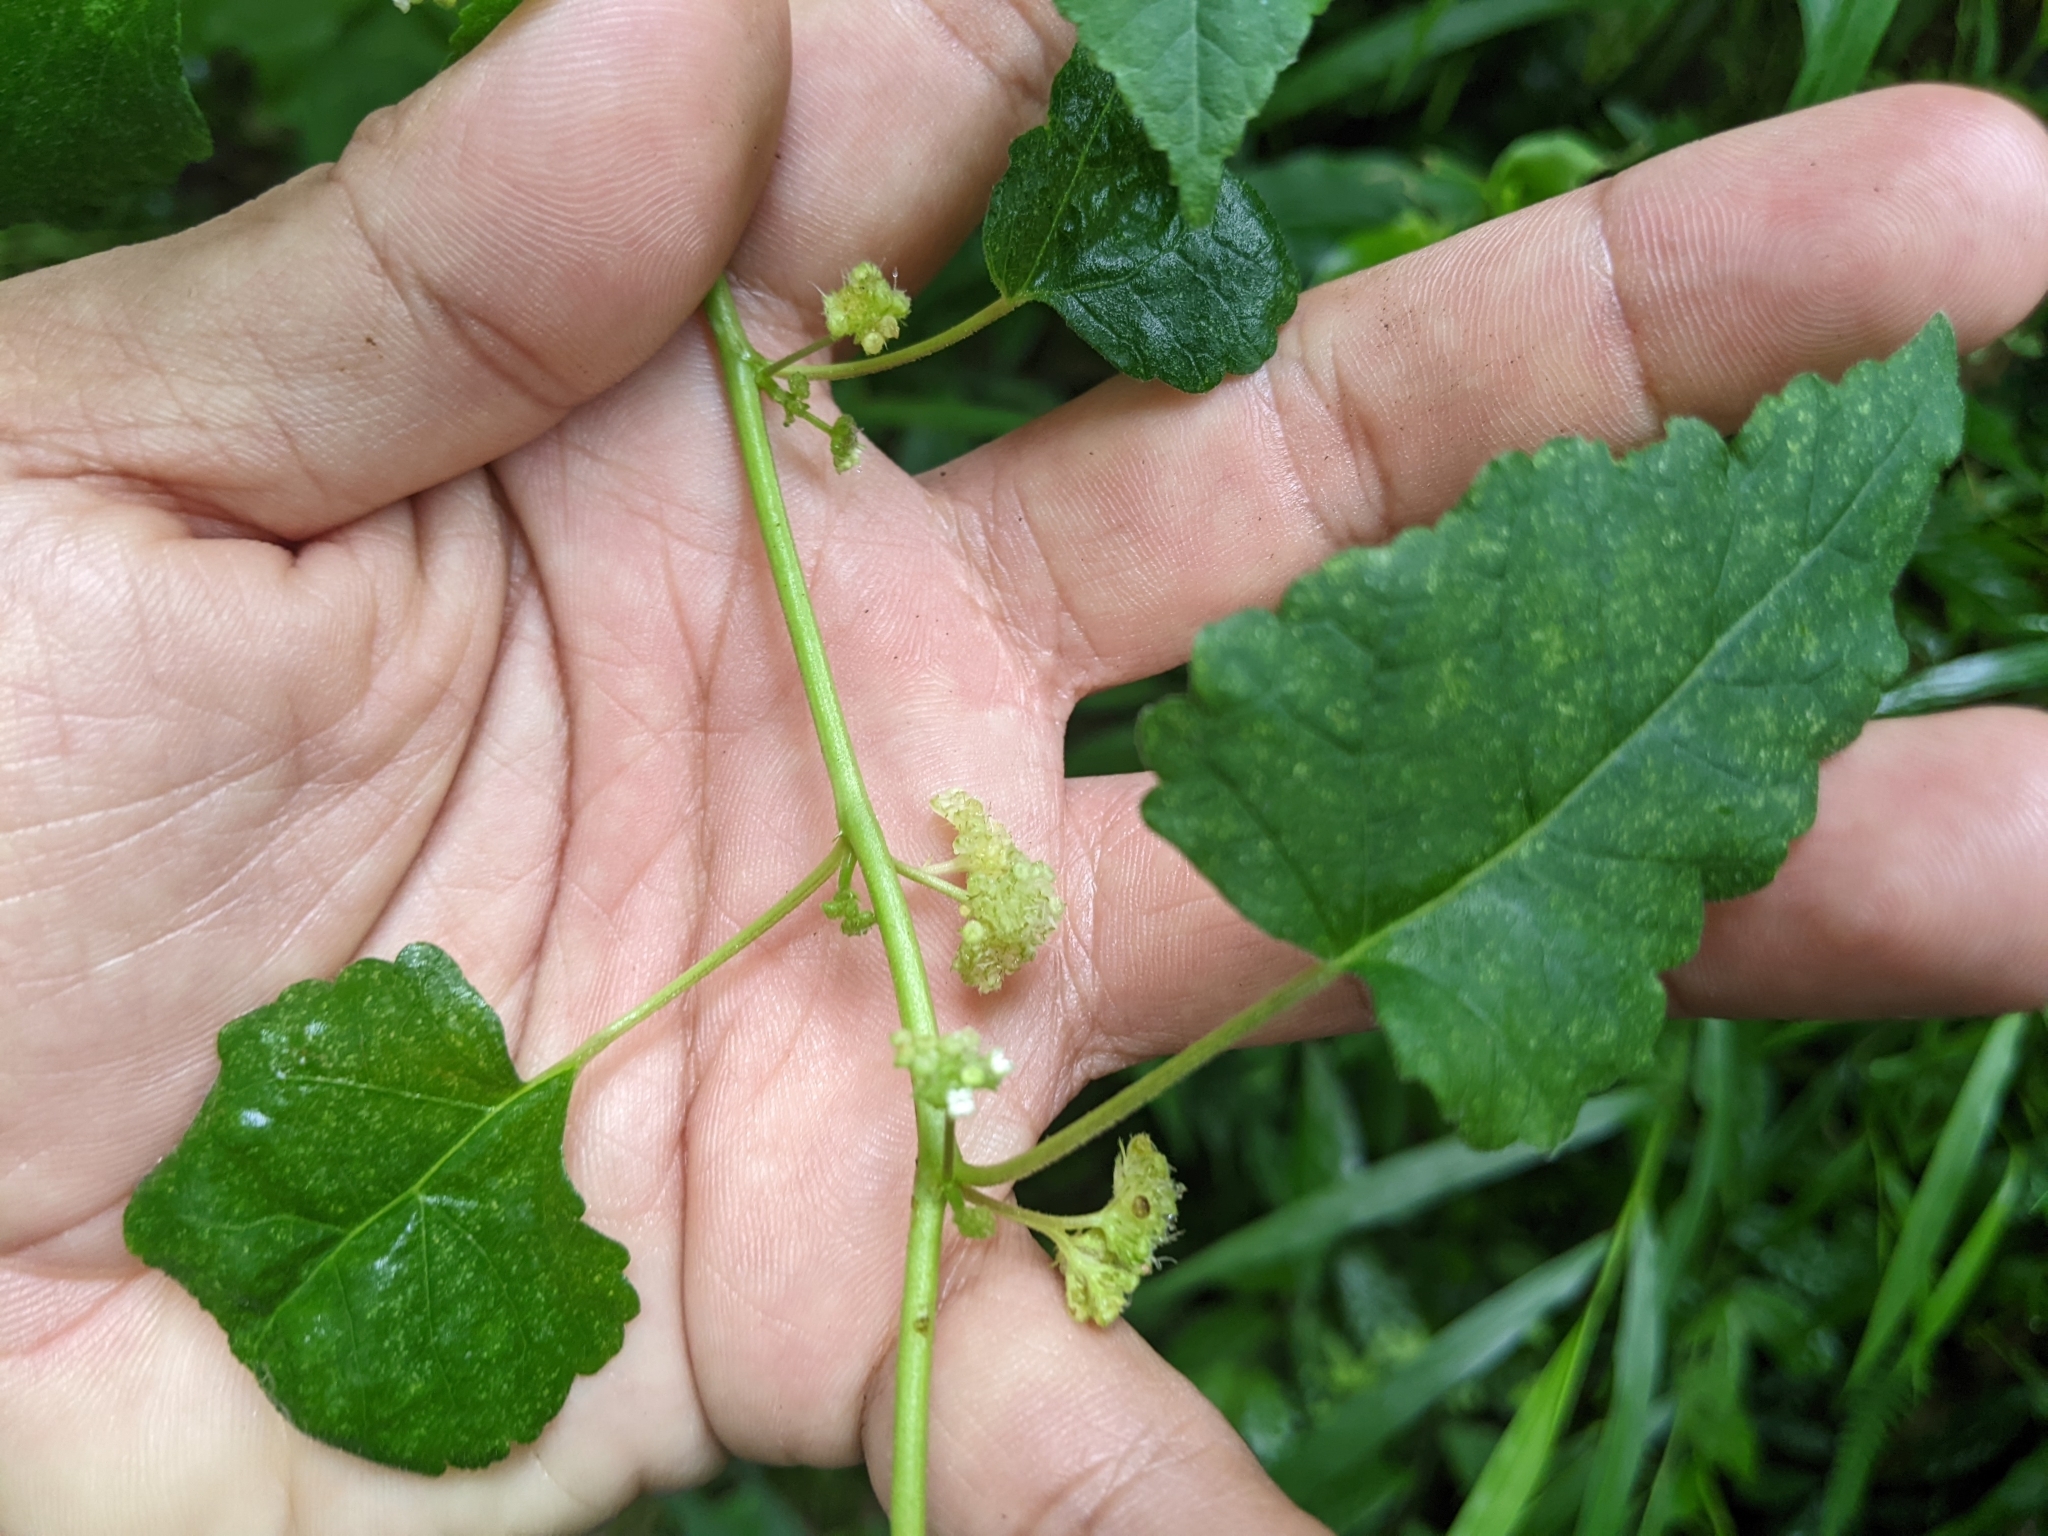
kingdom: Plantae
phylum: Tracheophyta
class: Magnoliopsida
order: Rosales
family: Moraceae
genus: Fatoua
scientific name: Fatoua villosa
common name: Hairy crabweed
